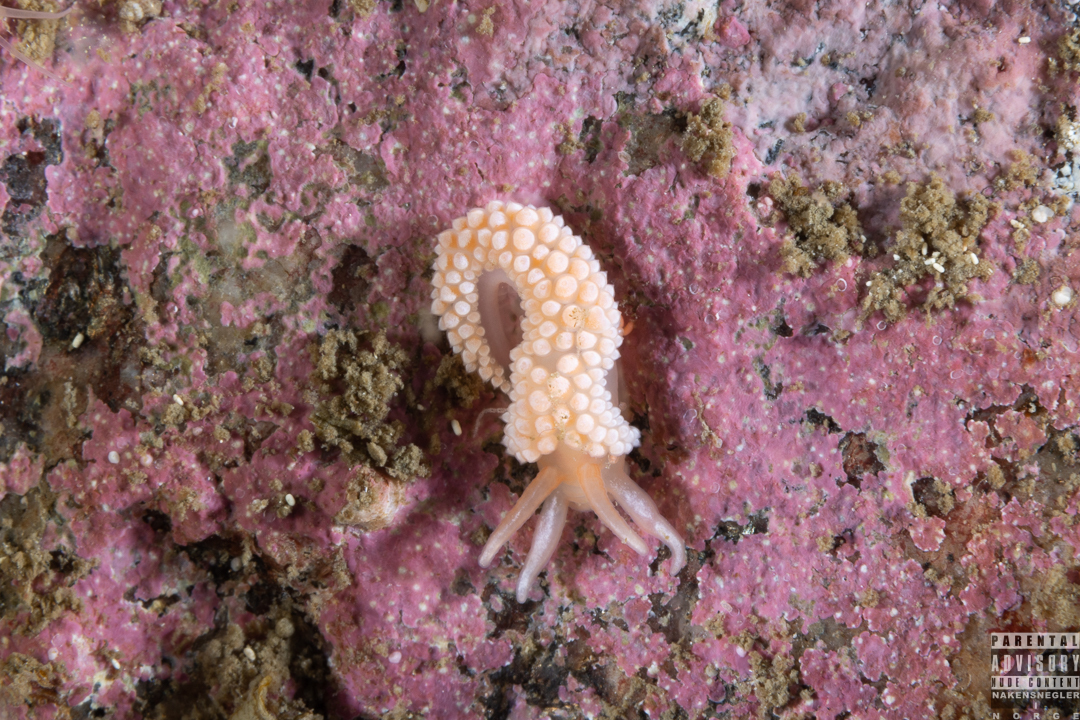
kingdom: Animalia
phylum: Mollusca
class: Gastropoda
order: Nudibranchia
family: Coryphellidae
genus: Coryphella
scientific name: Coryphella verrucosa
